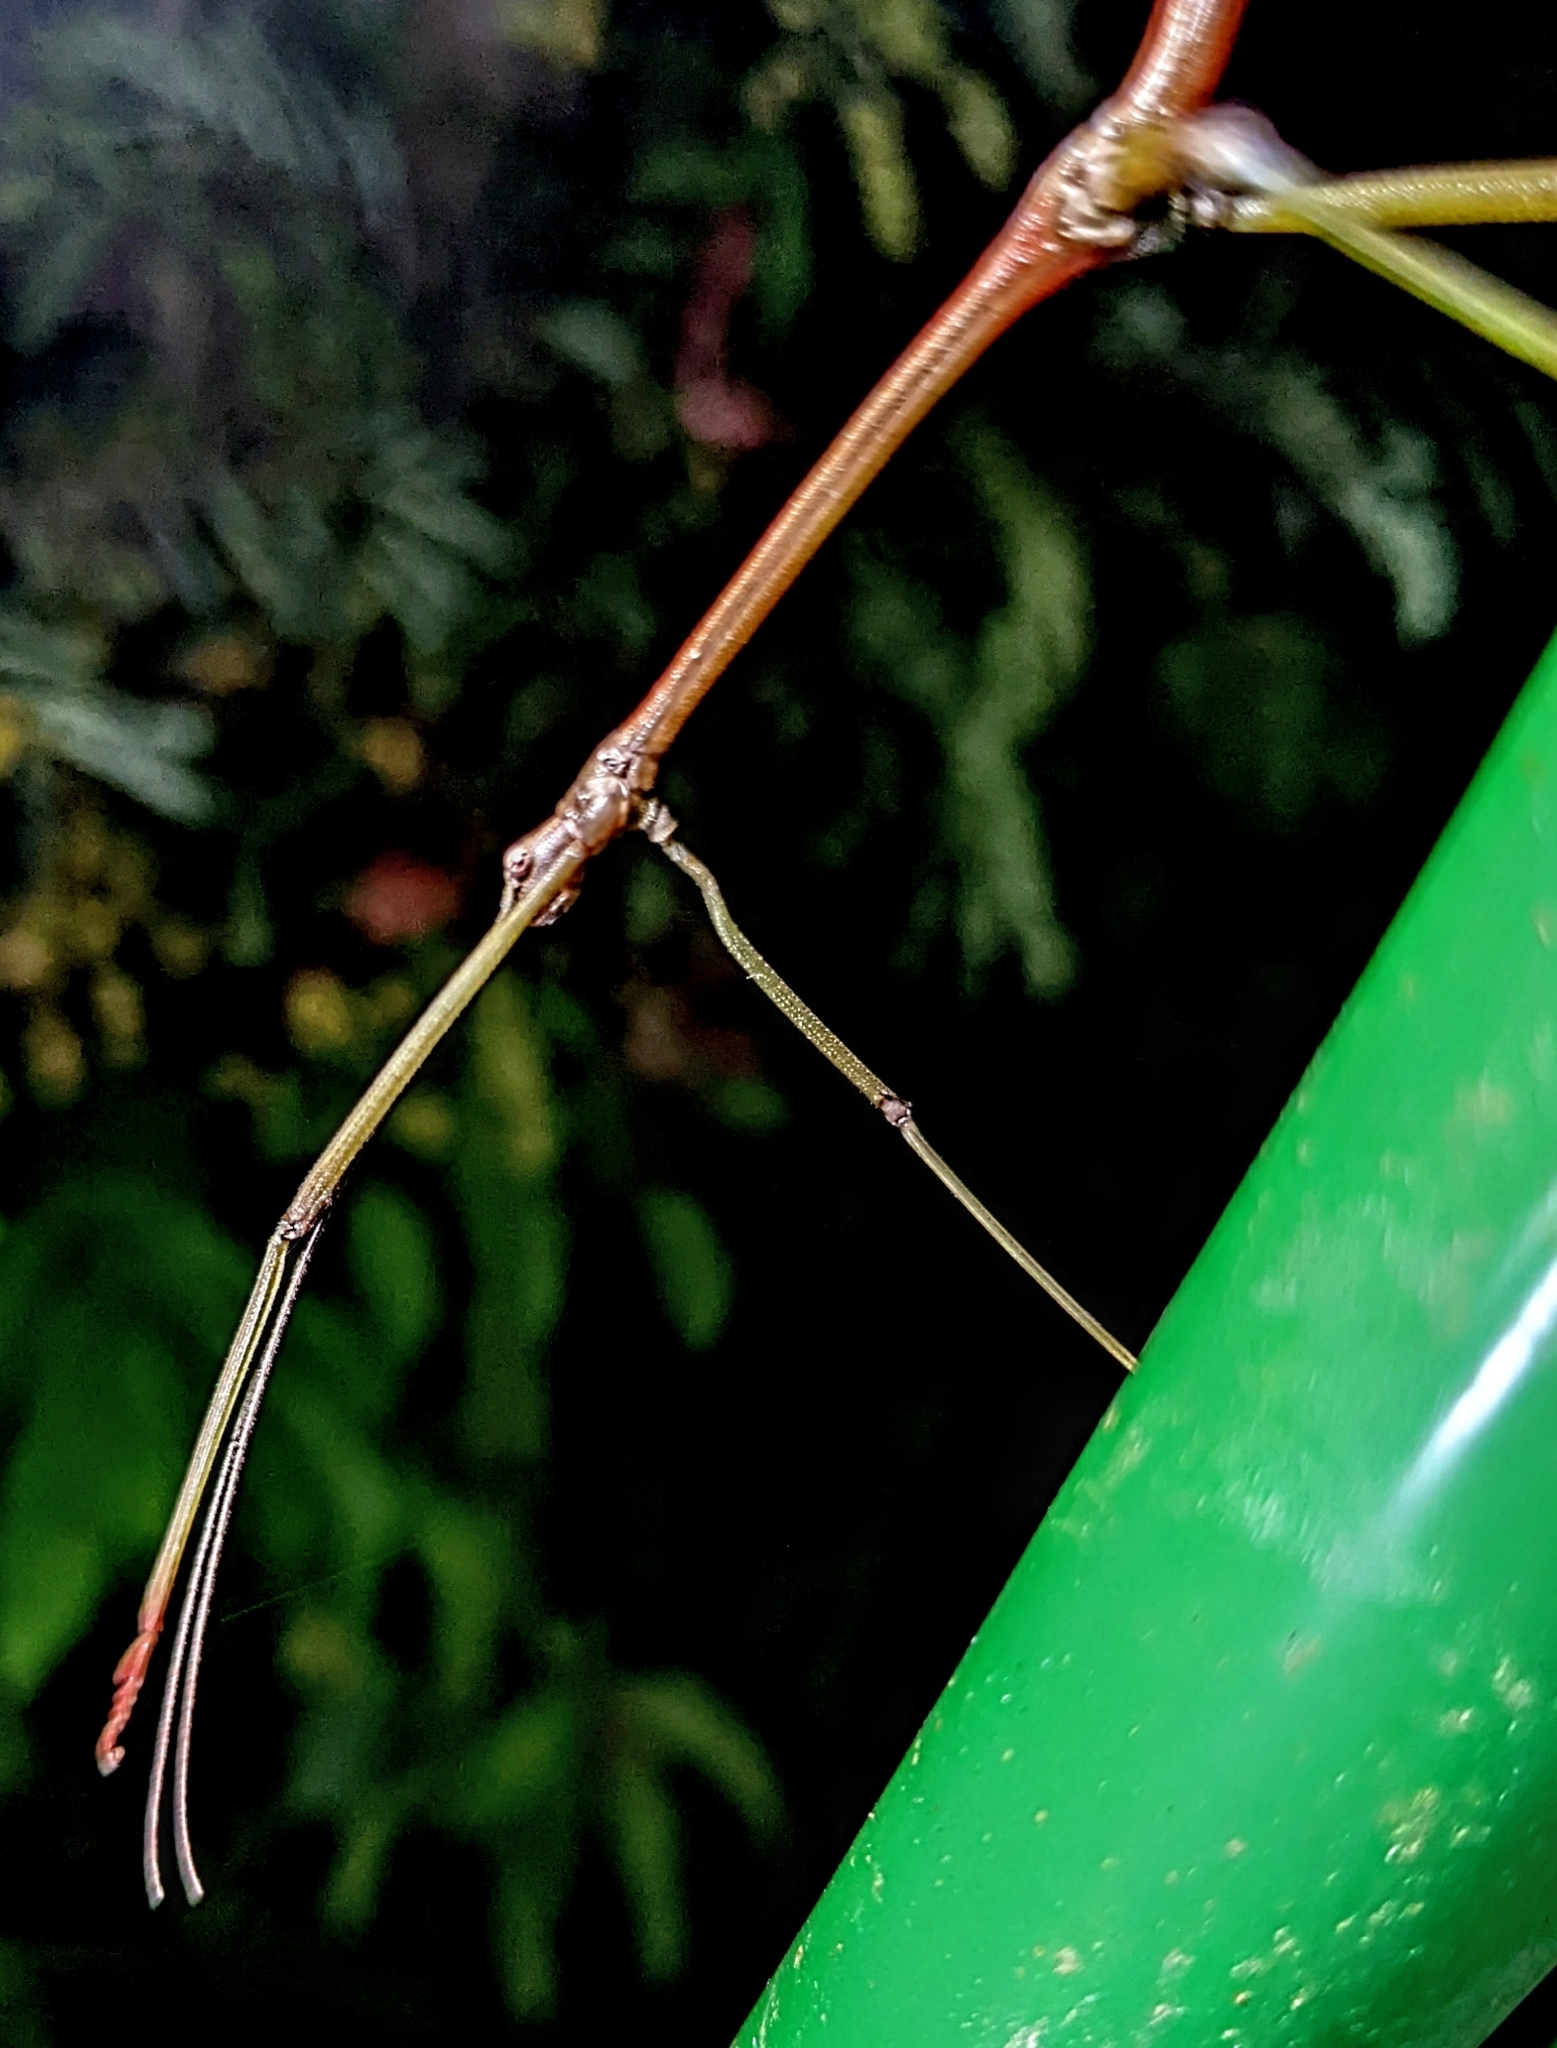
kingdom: Animalia
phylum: Arthropoda
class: Insecta
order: Phasmida
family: Lonchodidae
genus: Lonchodes
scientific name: Lonchodes brevipes
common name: Gray's malayan stick insect
